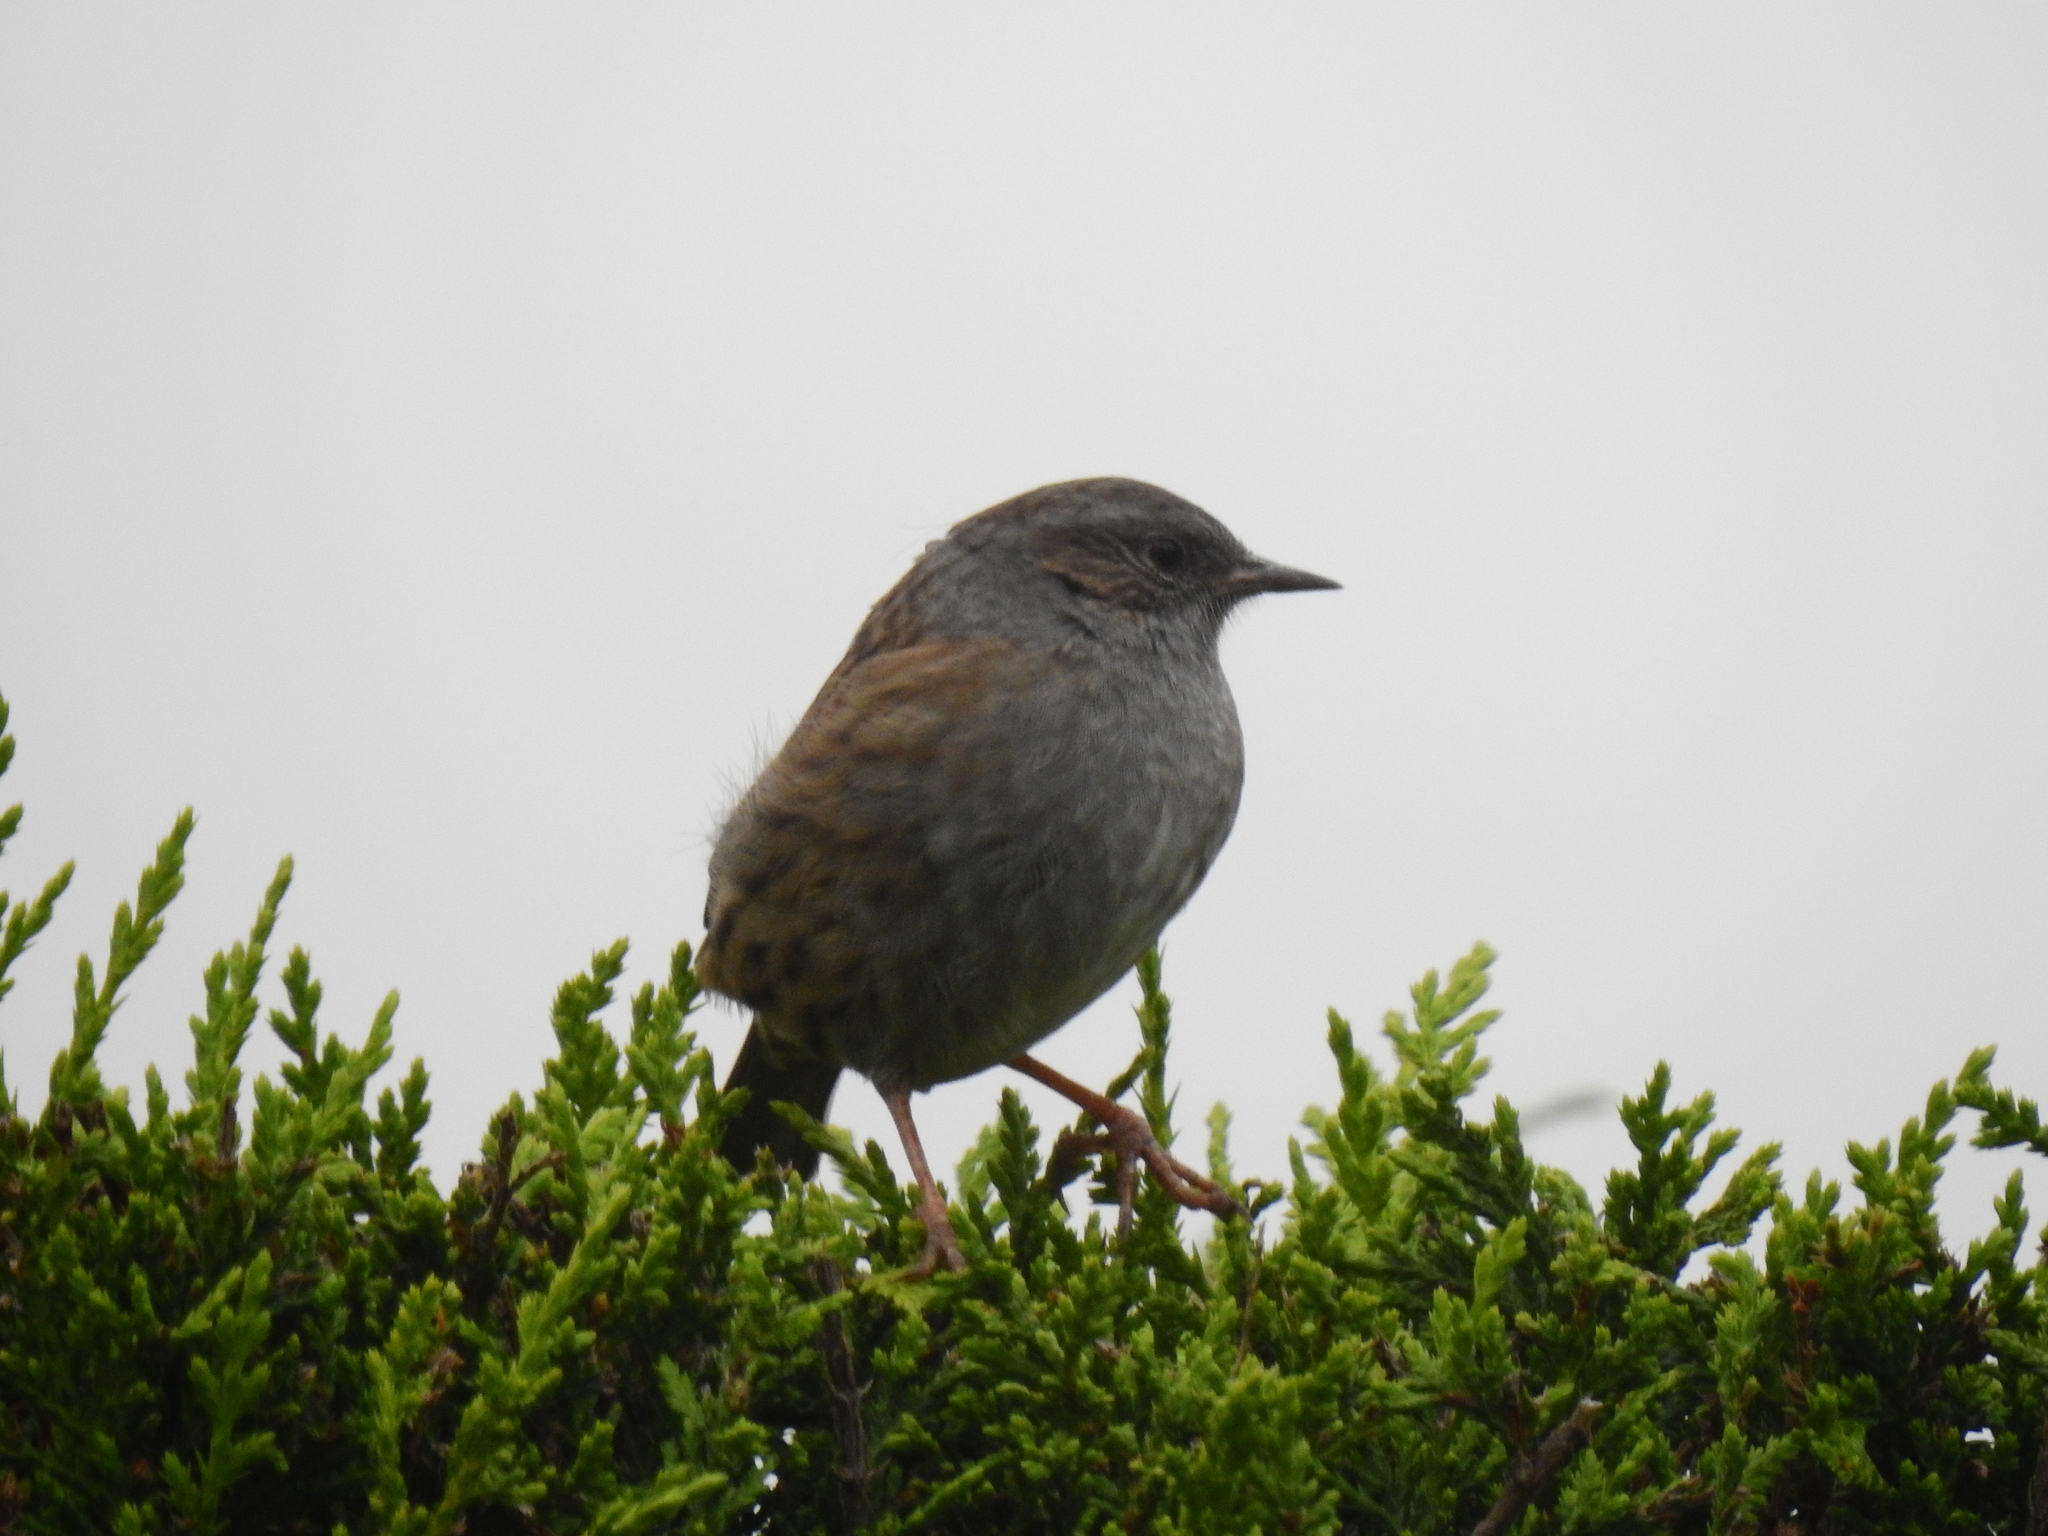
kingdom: Animalia
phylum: Chordata
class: Aves
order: Passeriformes
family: Prunellidae
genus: Prunella
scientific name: Prunella modularis
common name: Dunnock
